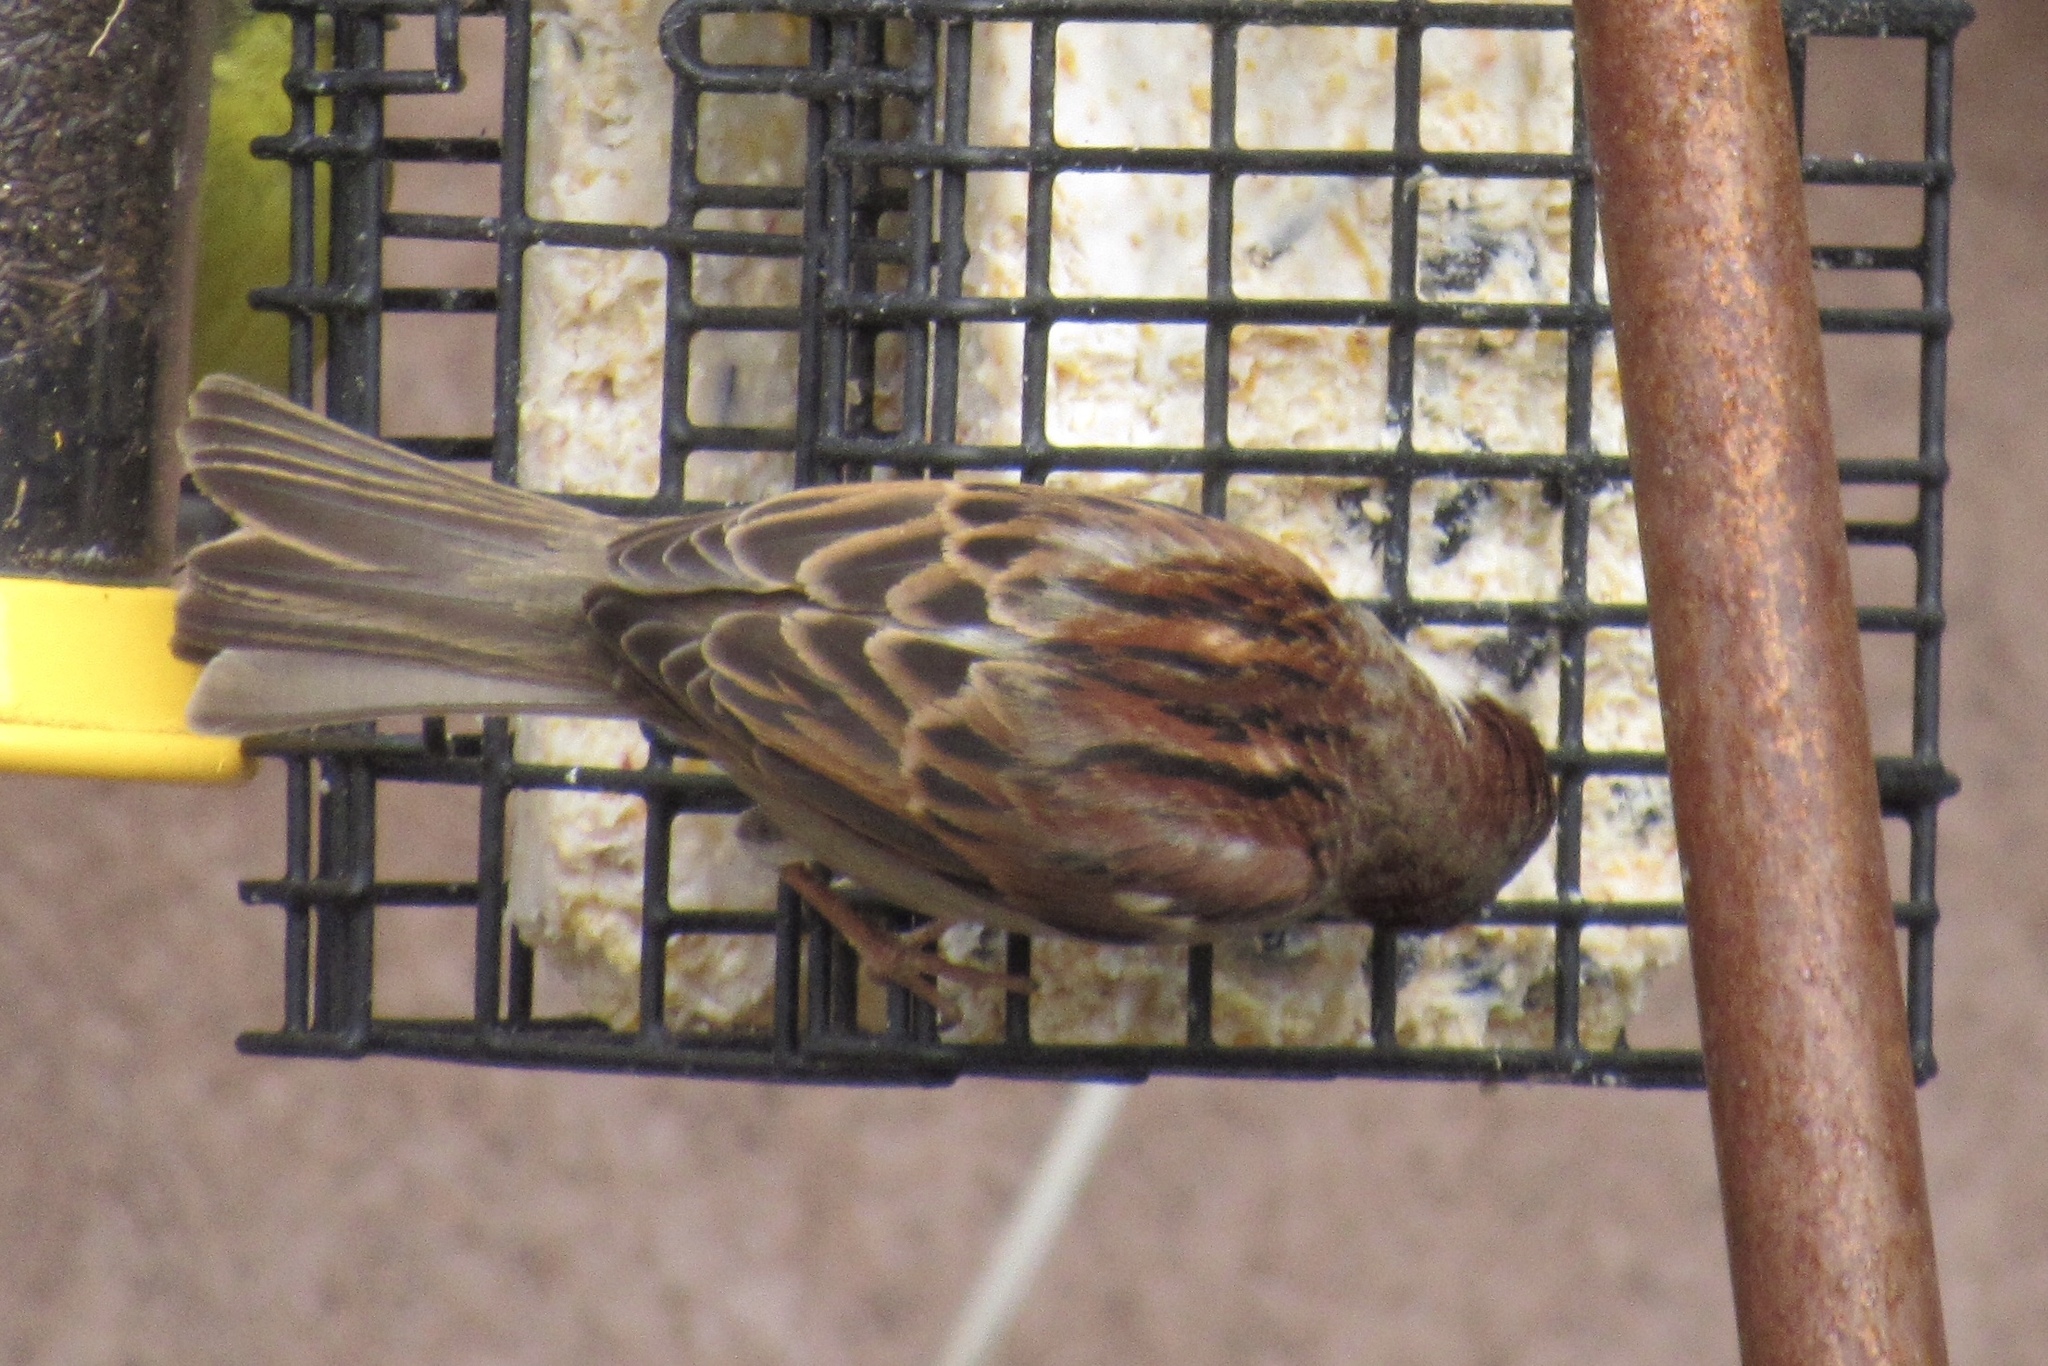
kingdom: Animalia
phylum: Chordata
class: Aves
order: Passeriformes
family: Passeridae
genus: Passer
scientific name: Passer domesticus
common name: House sparrow
